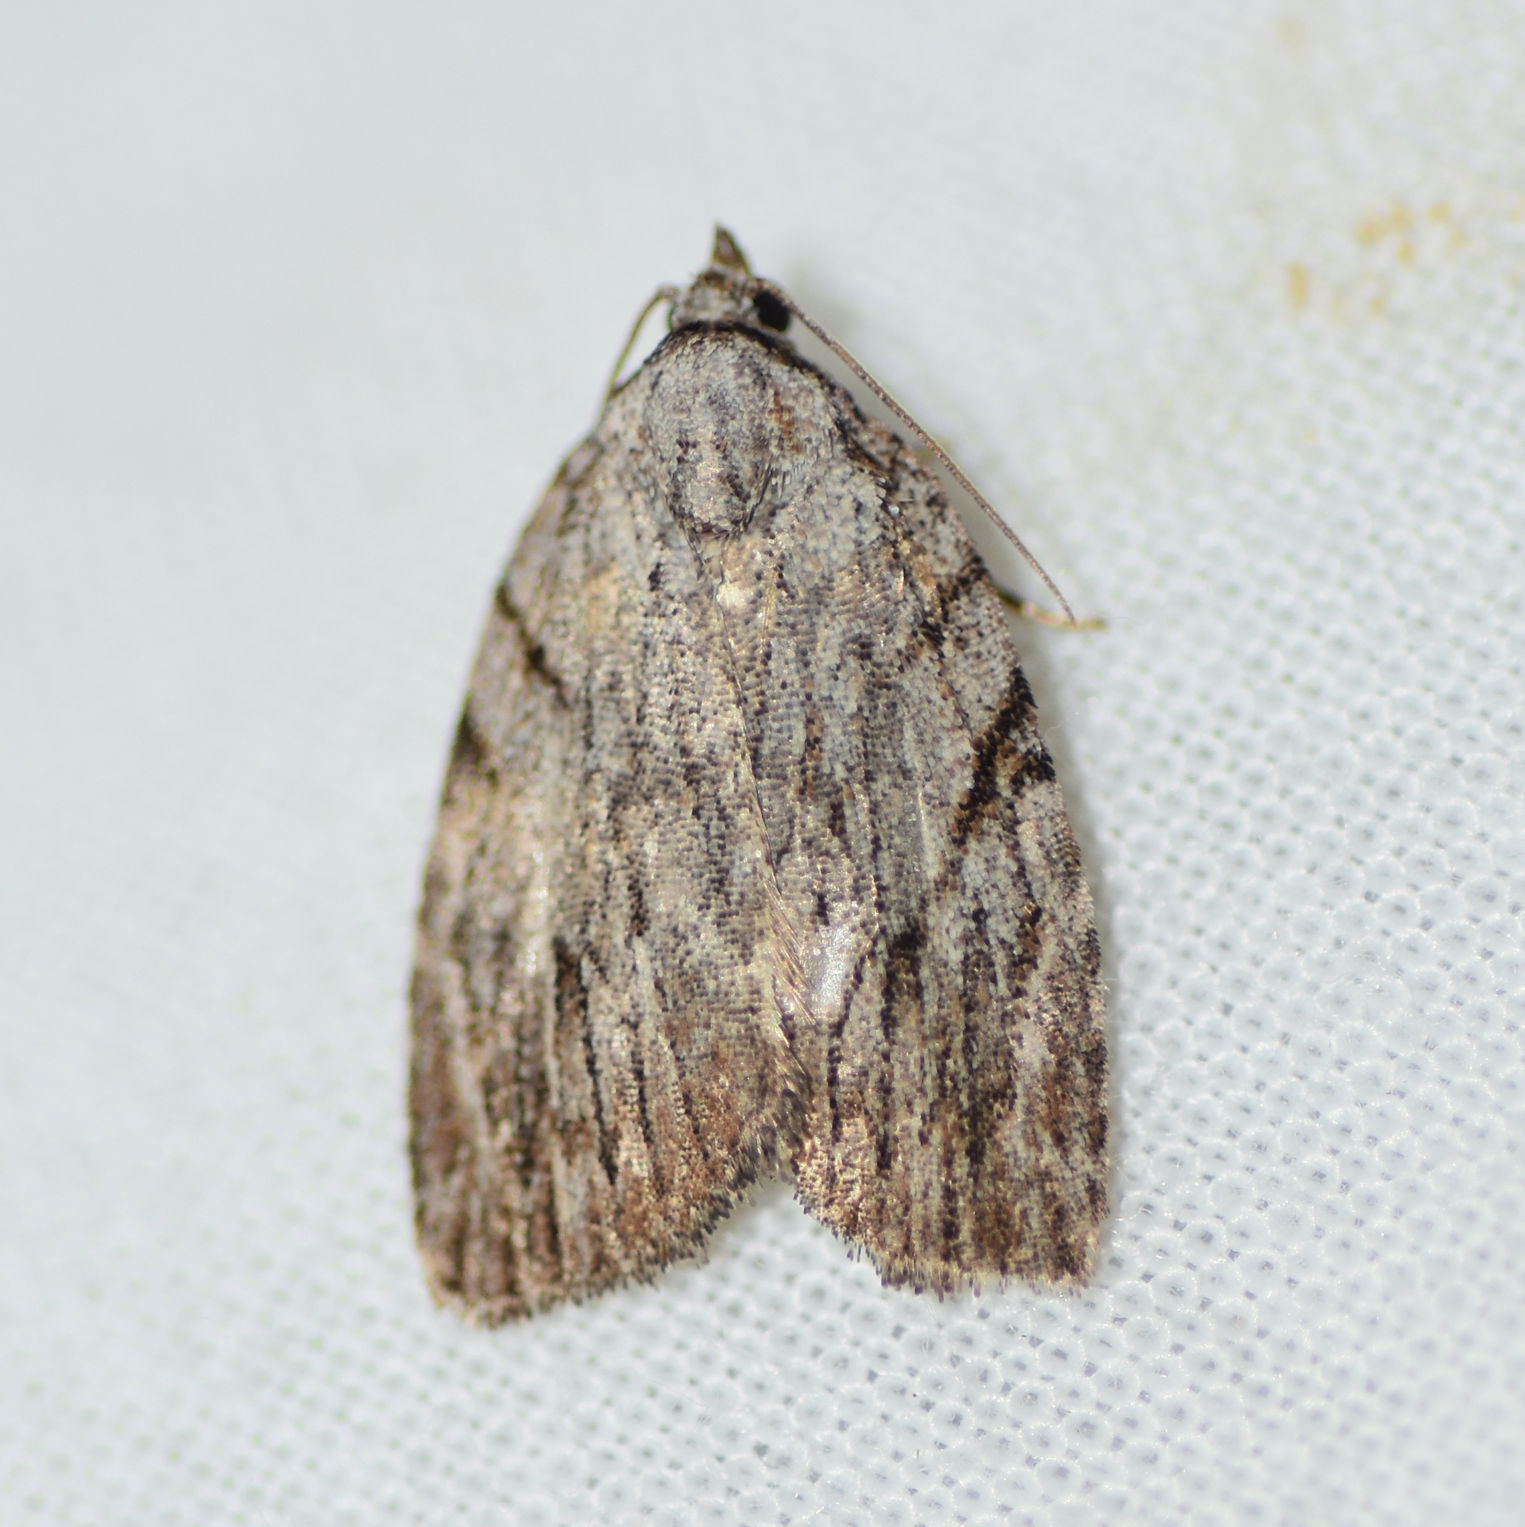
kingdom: Animalia
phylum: Arthropoda
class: Insecta
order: Lepidoptera
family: Noctuidae
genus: Balsa
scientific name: Balsa tristrigella
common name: Three-lined balsa moth
